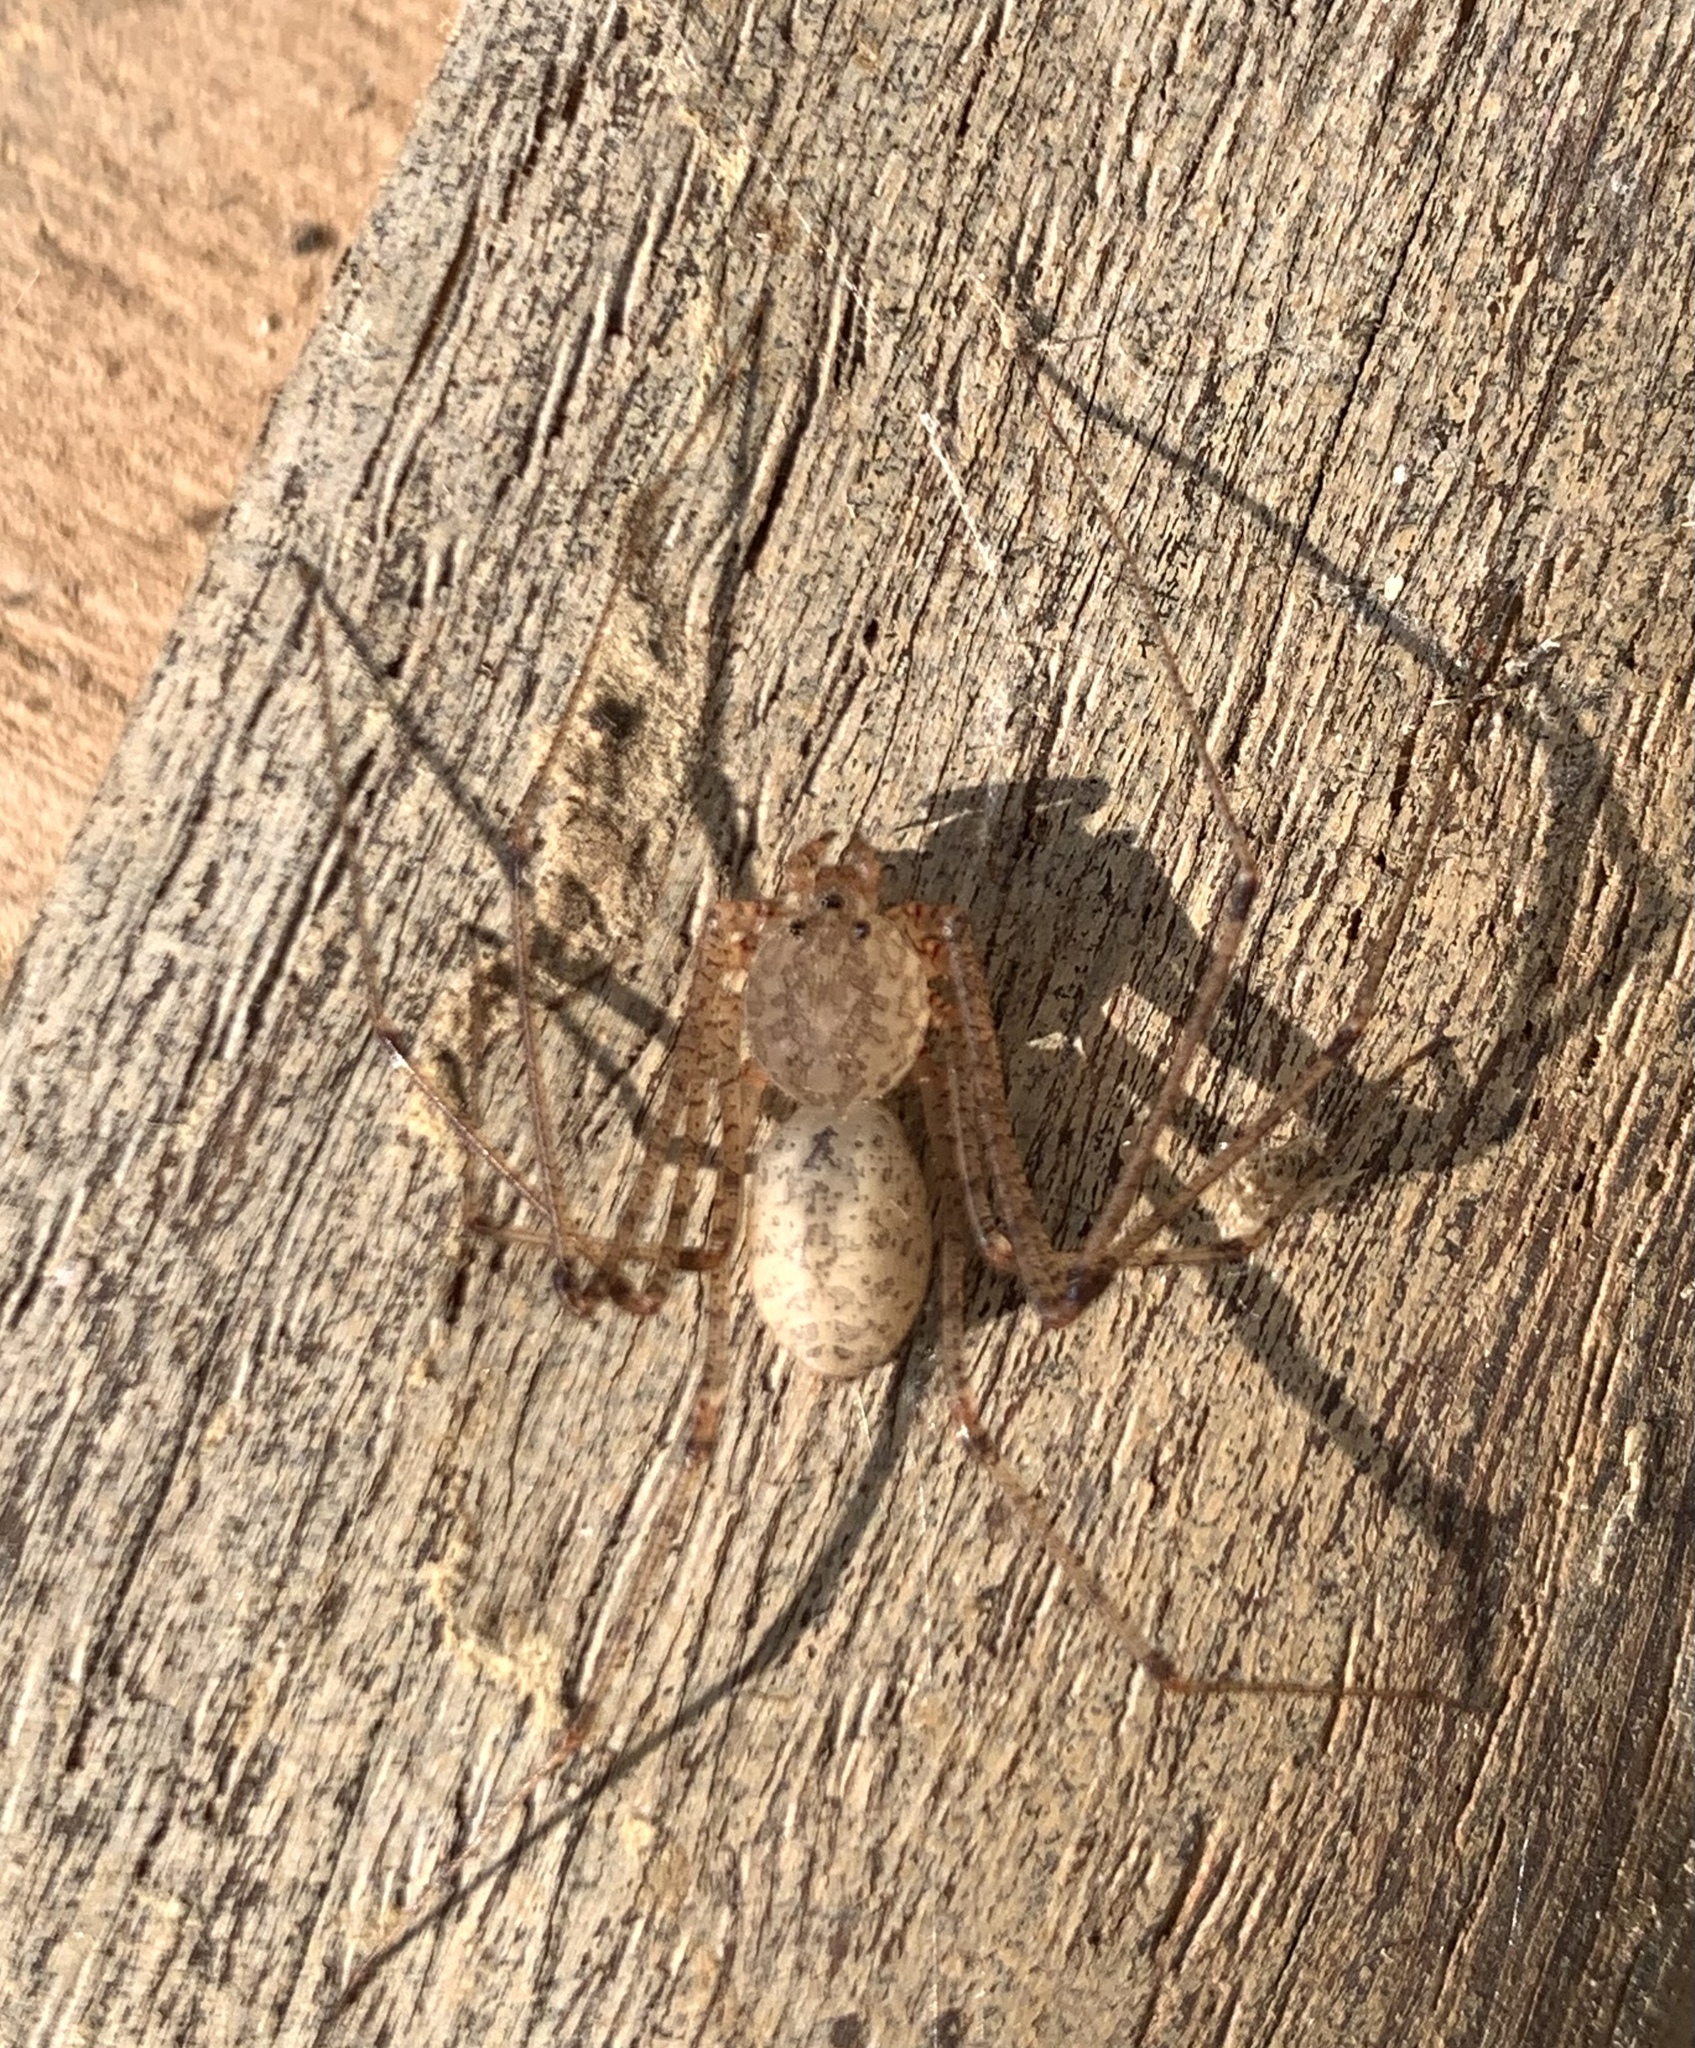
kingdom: Animalia
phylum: Arthropoda
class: Arachnida
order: Araneae
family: Scytodidae
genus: Scytodes
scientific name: Scytodes atlacoya
